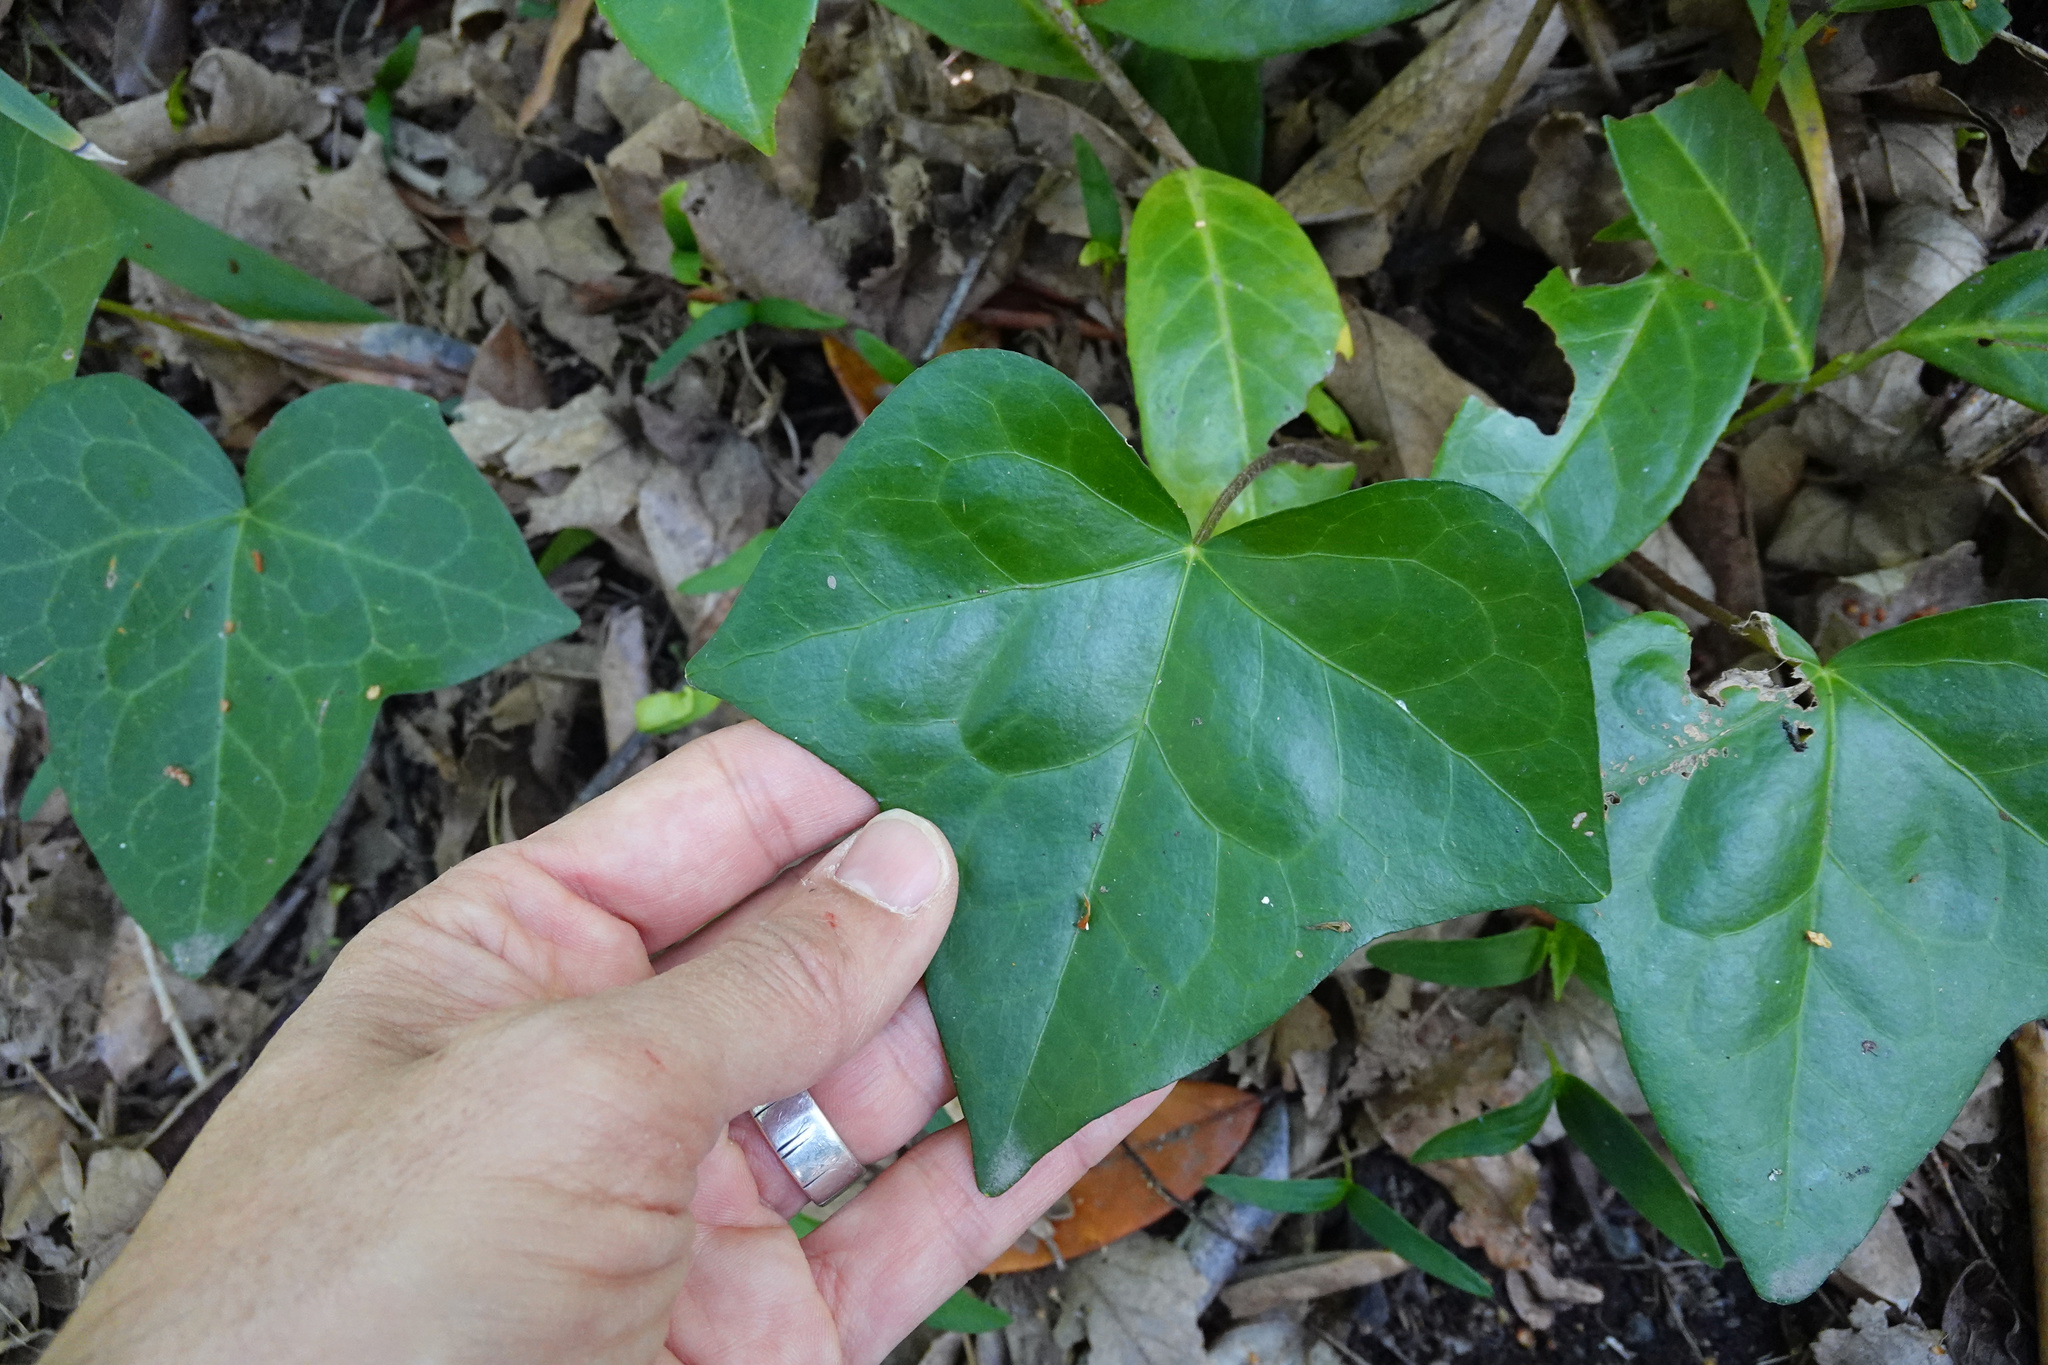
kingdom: Plantae
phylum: Tracheophyta
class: Magnoliopsida
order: Apiales
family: Araliaceae
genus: Hedera
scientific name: Hedera canariensis
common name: Madeira ivy
